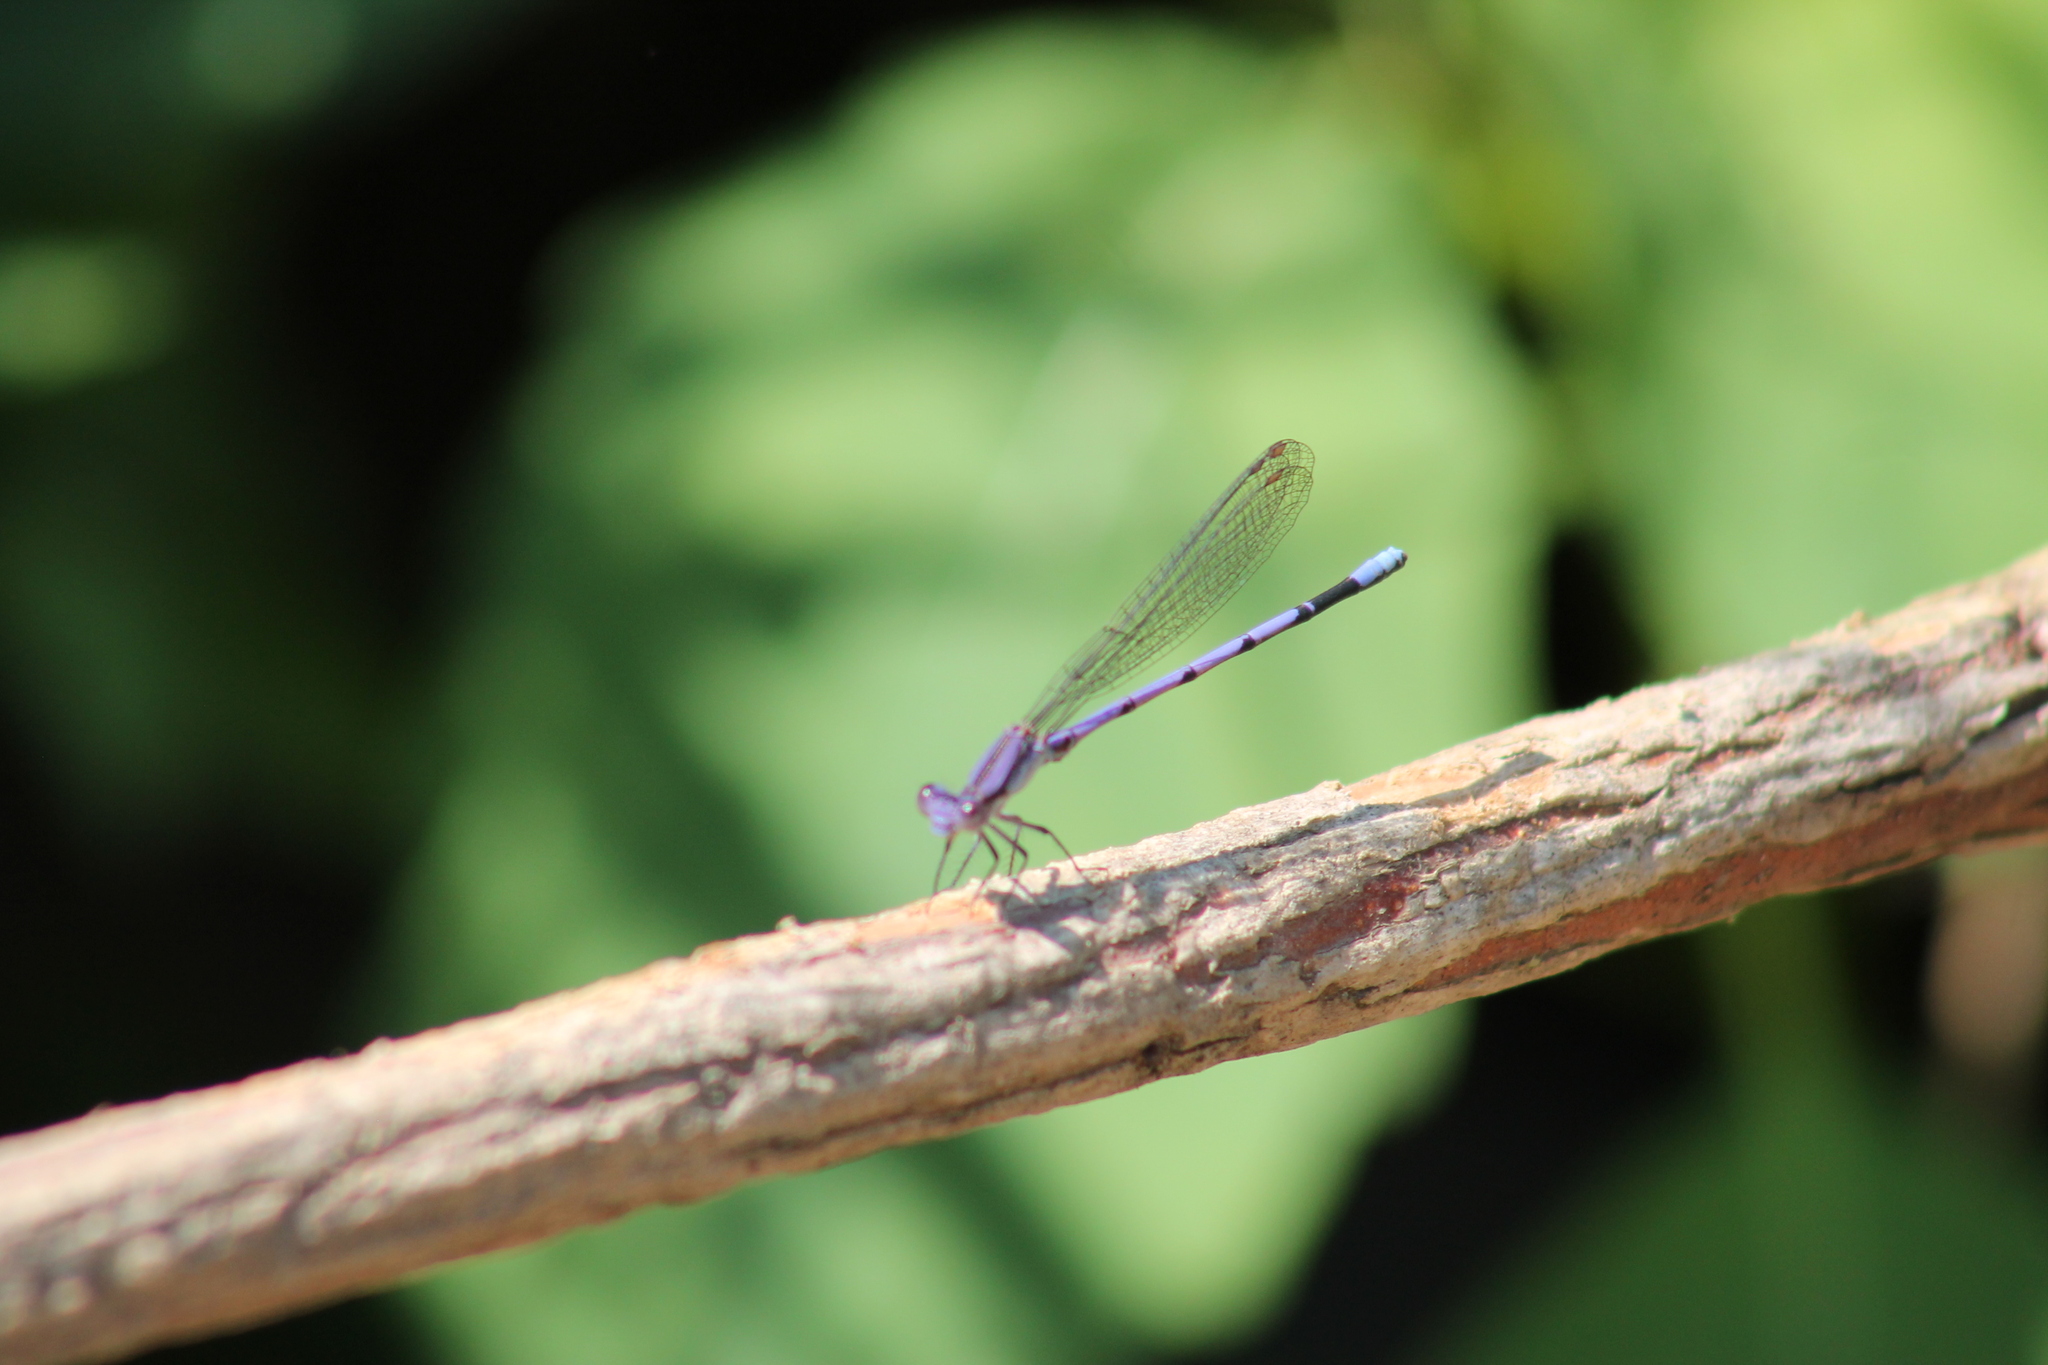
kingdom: Animalia
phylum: Arthropoda
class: Insecta
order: Odonata
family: Coenagrionidae
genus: Argia
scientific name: Argia fumipennis
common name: Variable dancer
